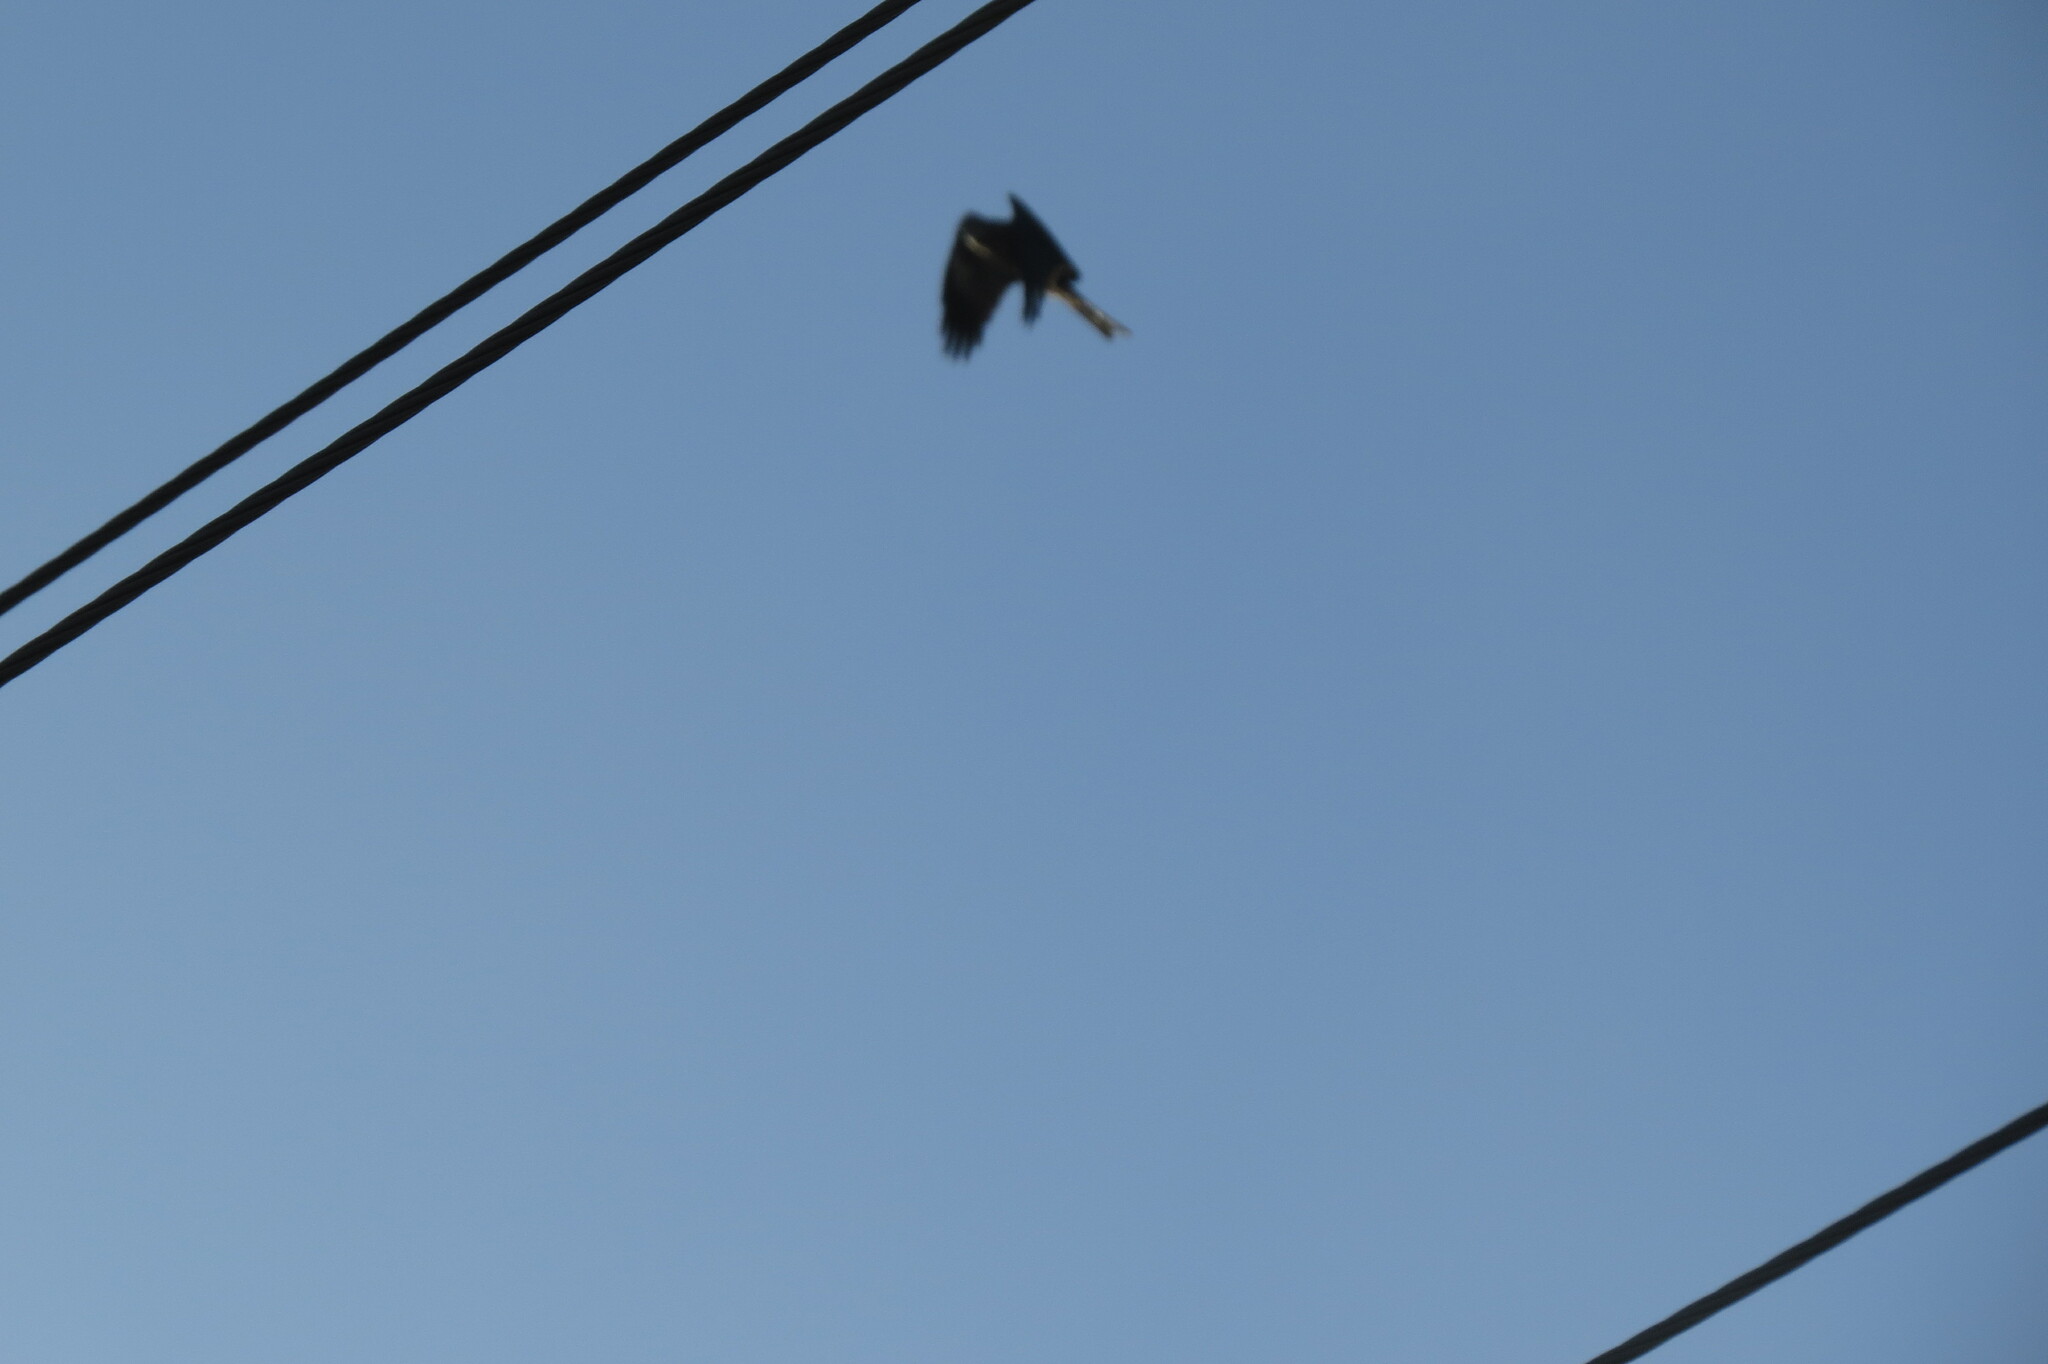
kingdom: Animalia
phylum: Chordata
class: Aves
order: Accipitriformes
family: Accipitridae
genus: Milvus
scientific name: Milvus migrans
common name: Black kite
